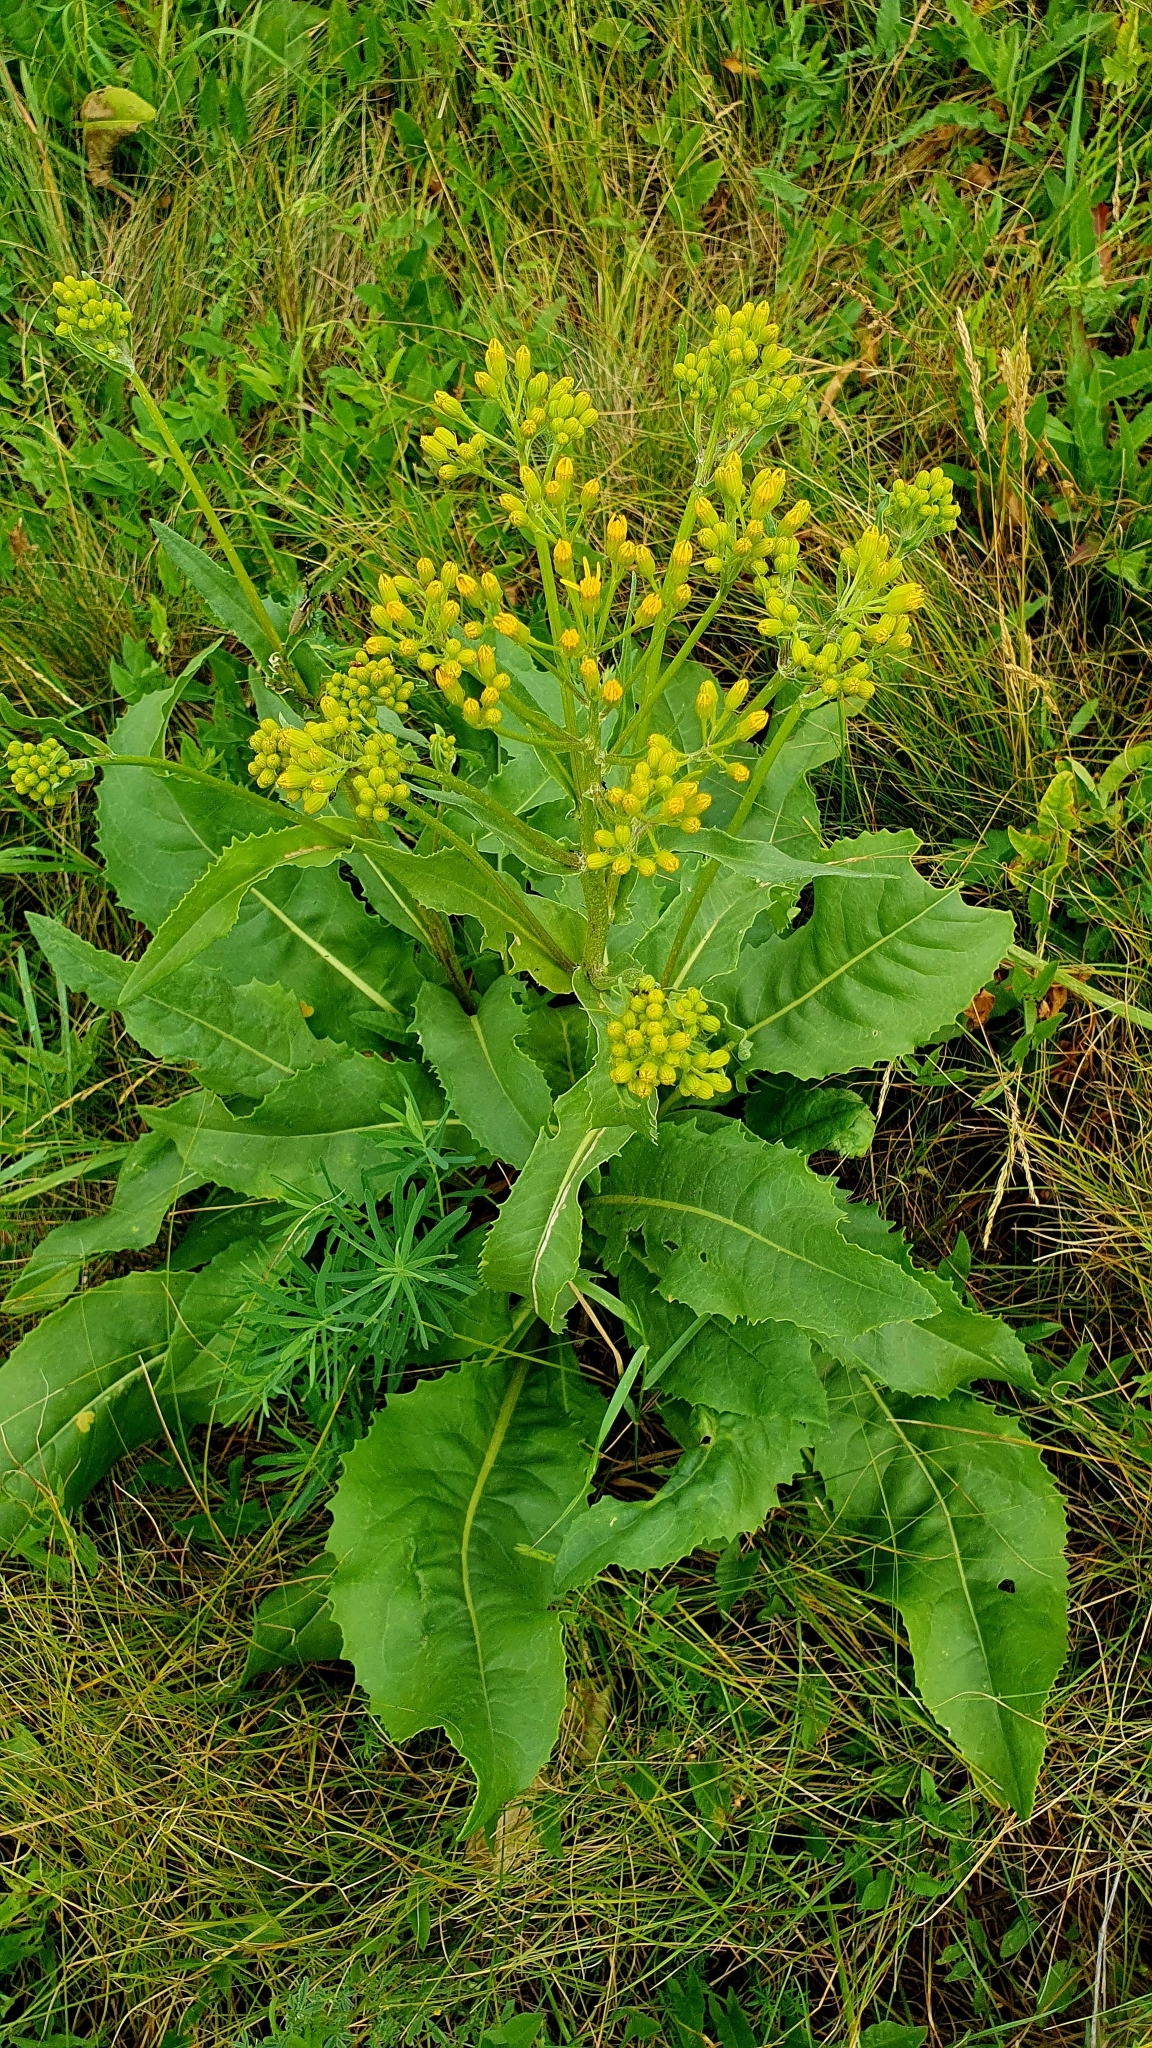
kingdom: Plantae
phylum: Tracheophyta
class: Magnoliopsida
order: Asterales
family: Asteraceae
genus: Senecio
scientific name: Senecio doria
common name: Golden ragwort
